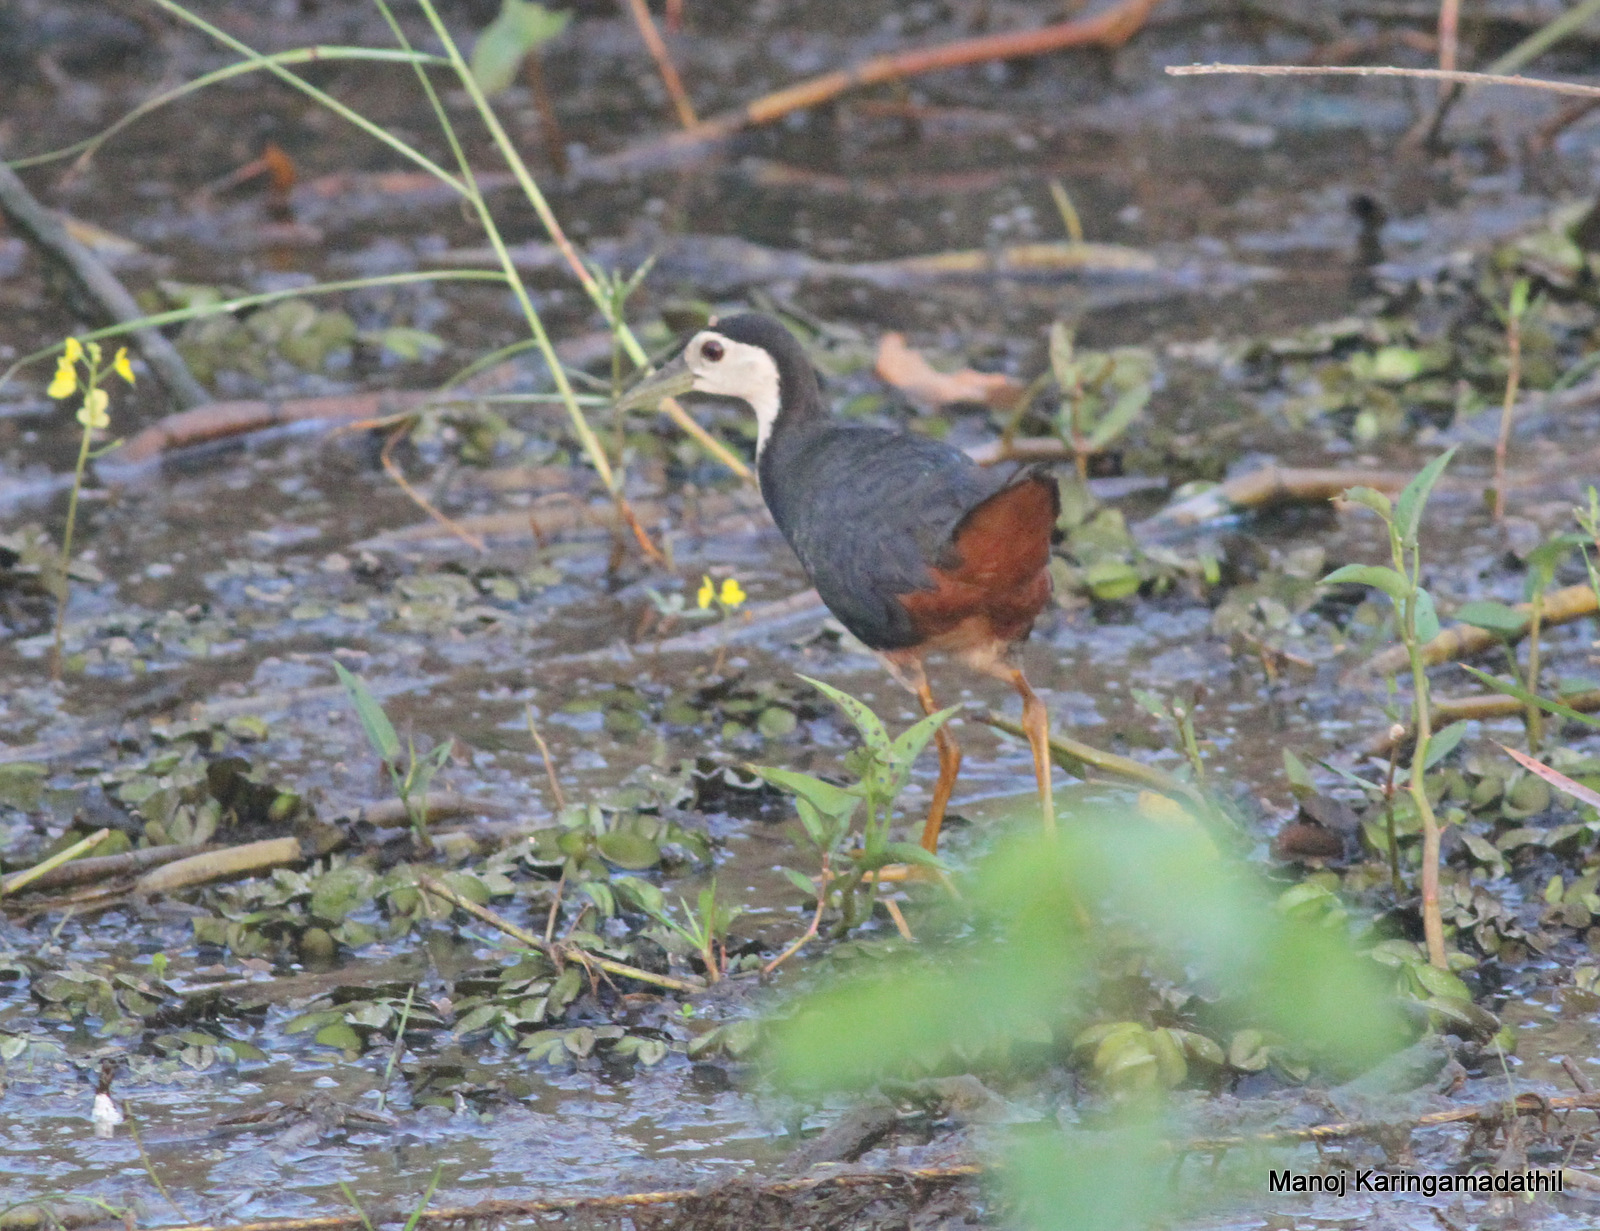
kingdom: Animalia
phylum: Chordata
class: Aves
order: Gruiformes
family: Rallidae
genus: Amaurornis
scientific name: Amaurornis phoenicurus
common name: White-breasted waterhen
